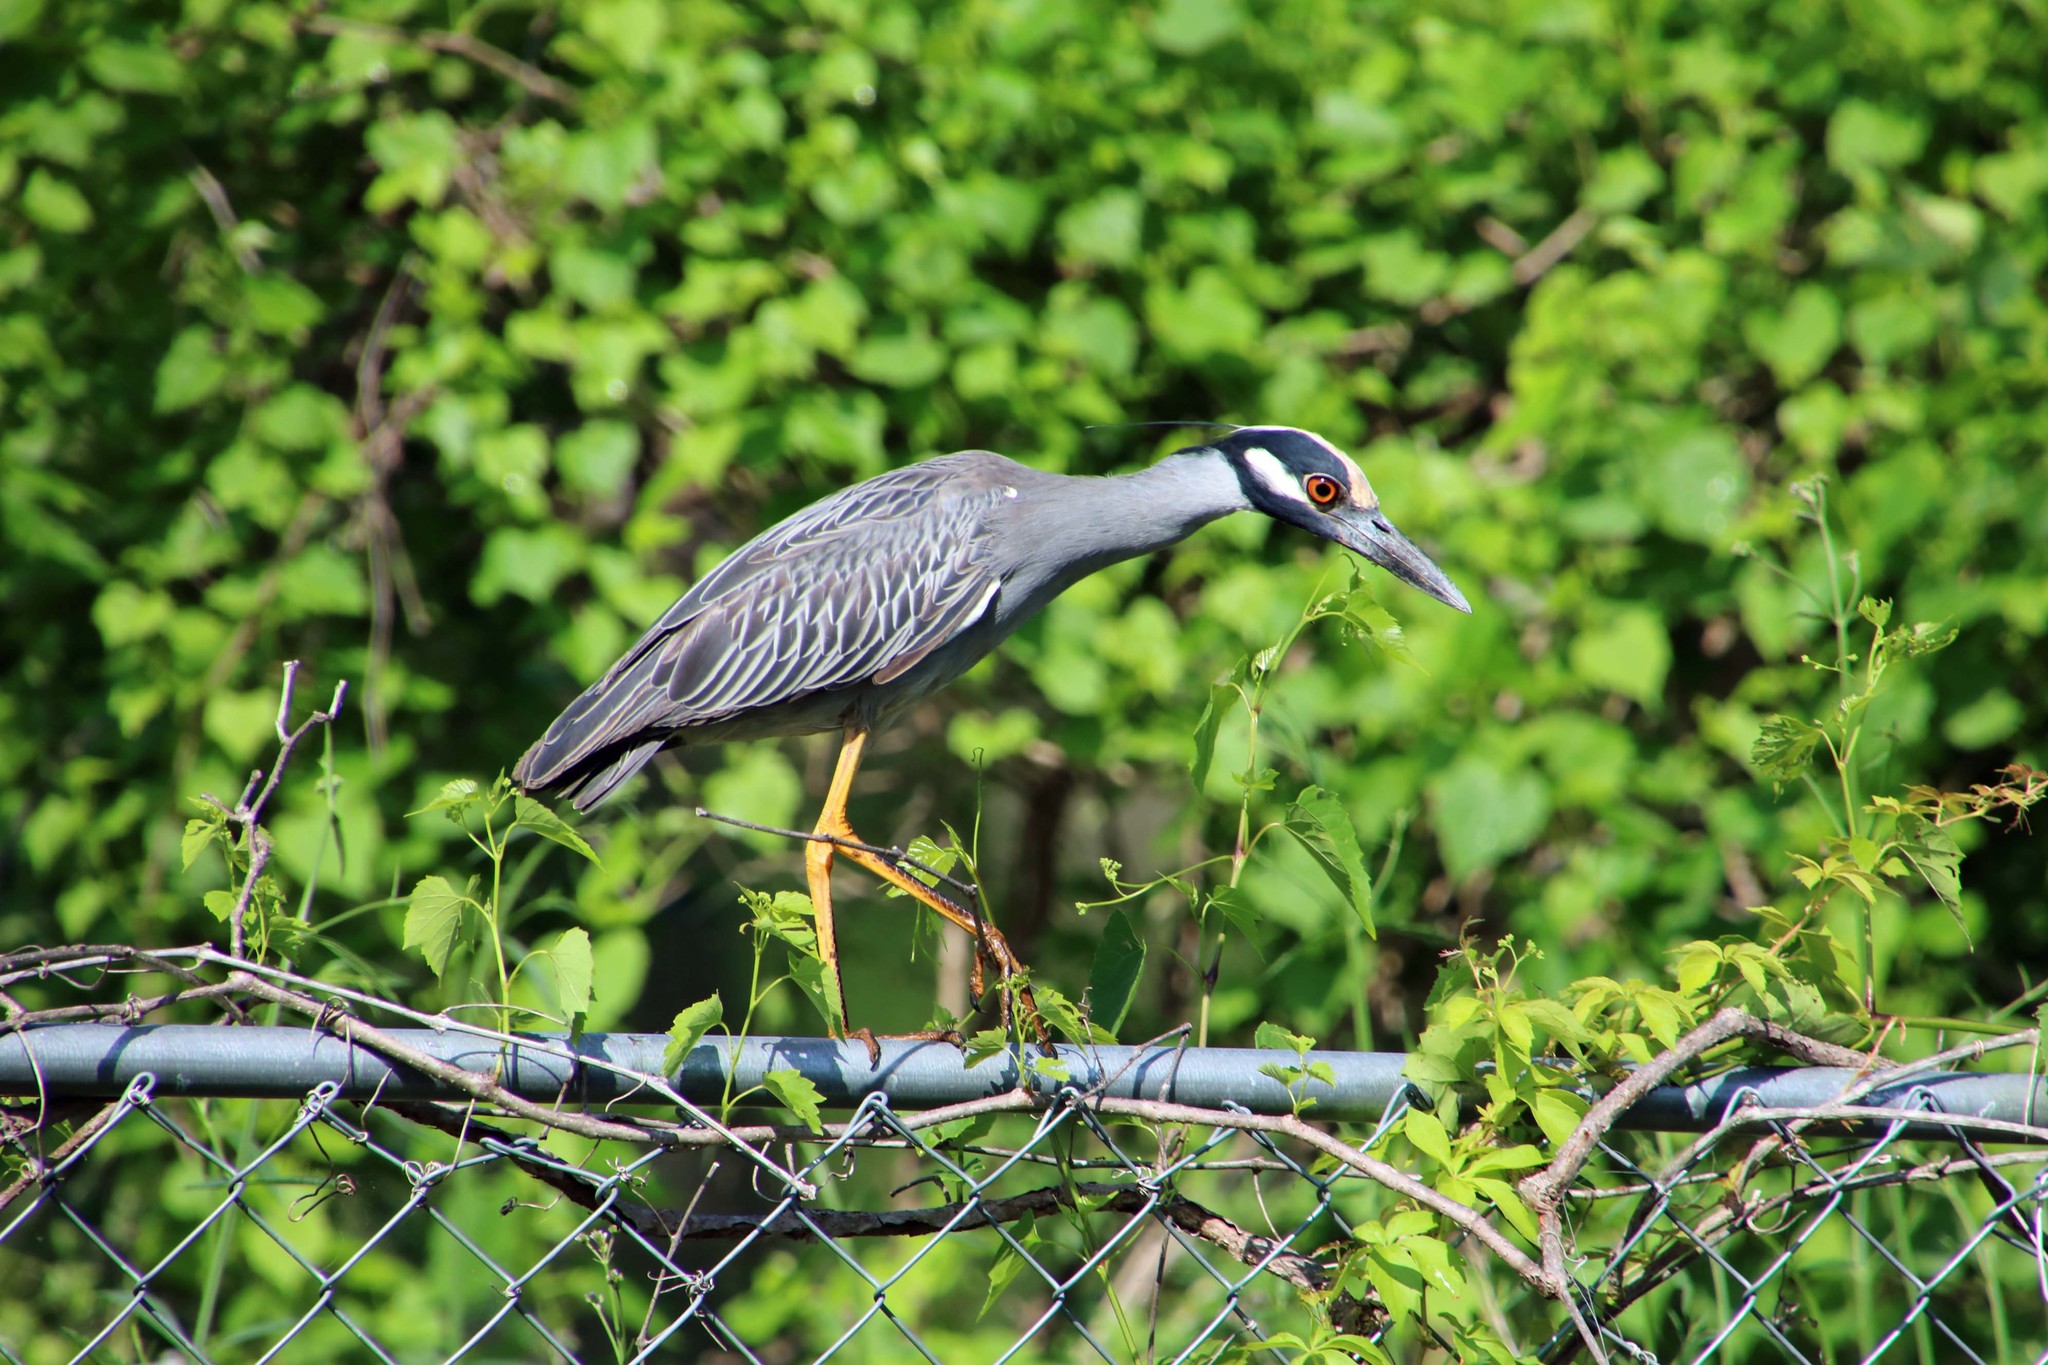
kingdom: Animalia
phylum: Chordata
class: Aves
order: Pelecaniformes
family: Ardeidae
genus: Nyctanassa
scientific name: Nyctanassa violacea
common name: Yellow-crowned night heron
